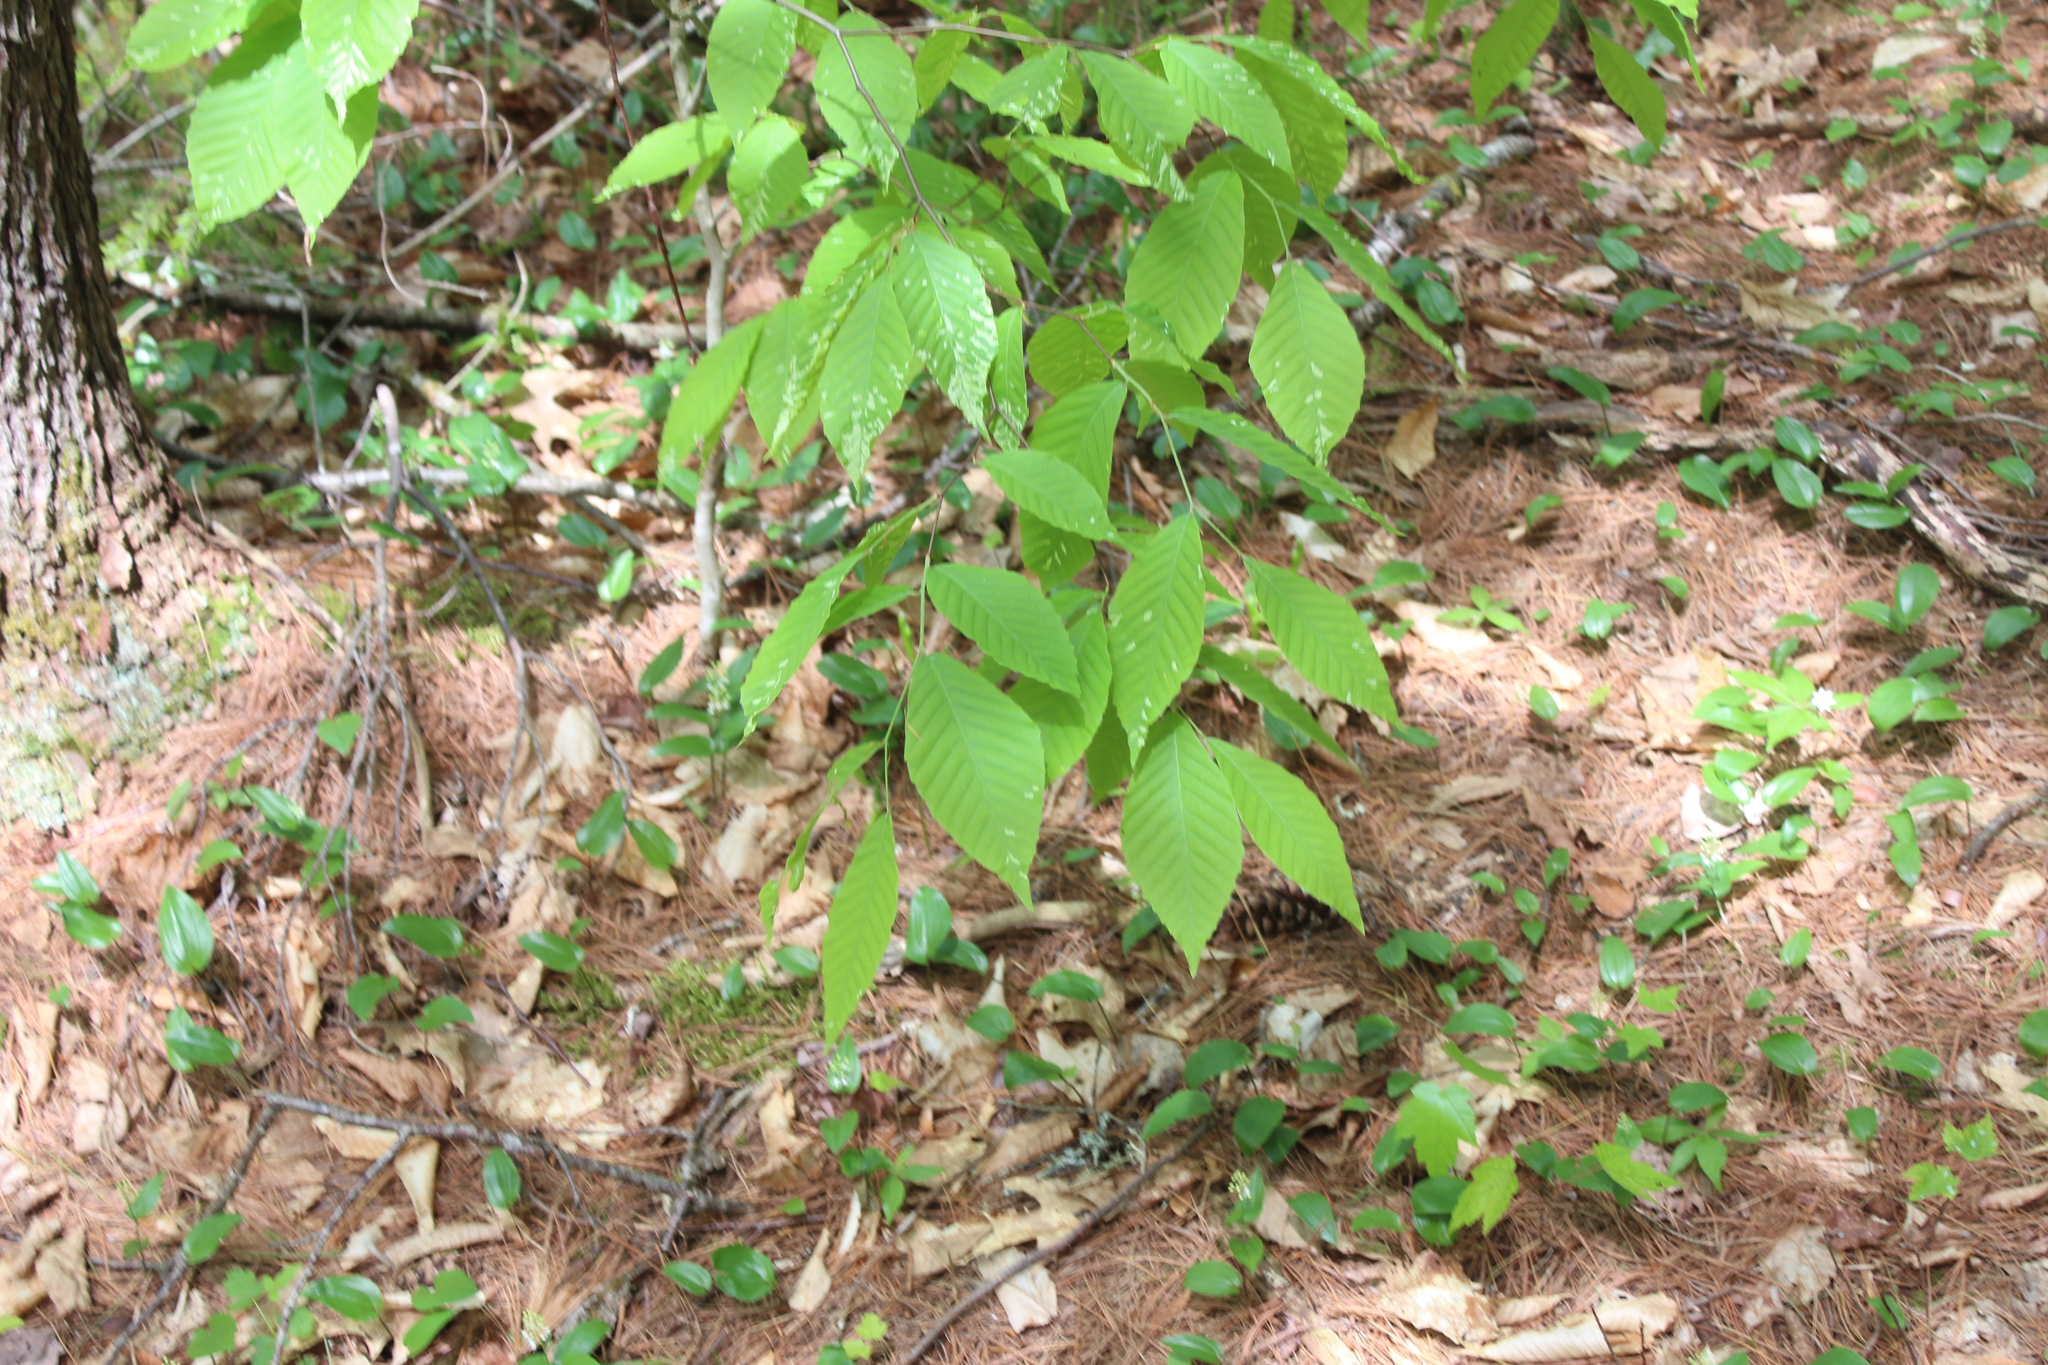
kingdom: Plantae
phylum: Tracheophyta
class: Magnoliopsida
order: Fagales
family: Fagaceae
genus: Fagus
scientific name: Fagus grandifolia
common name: American beech
